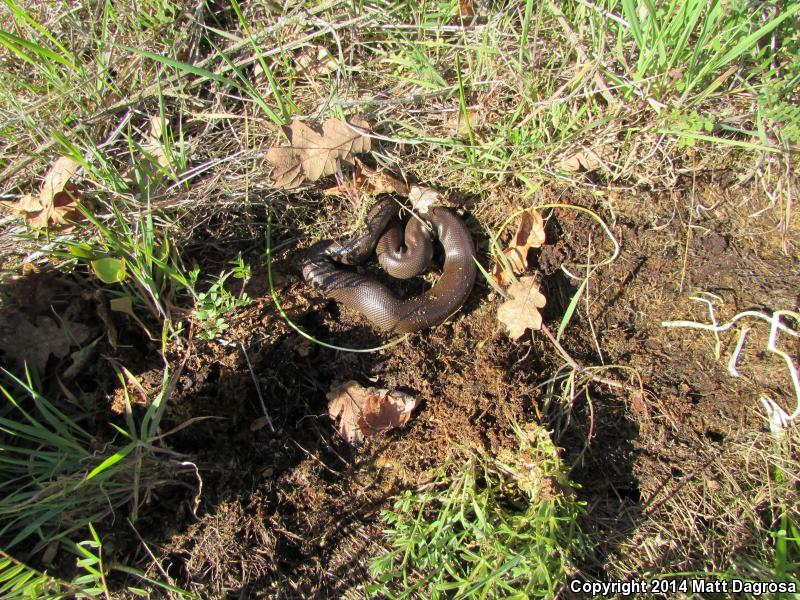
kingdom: Animalia
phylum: Chordata
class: Squamata
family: Boidae
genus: Charina
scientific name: Charina bottae
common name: Northern rubber boa
